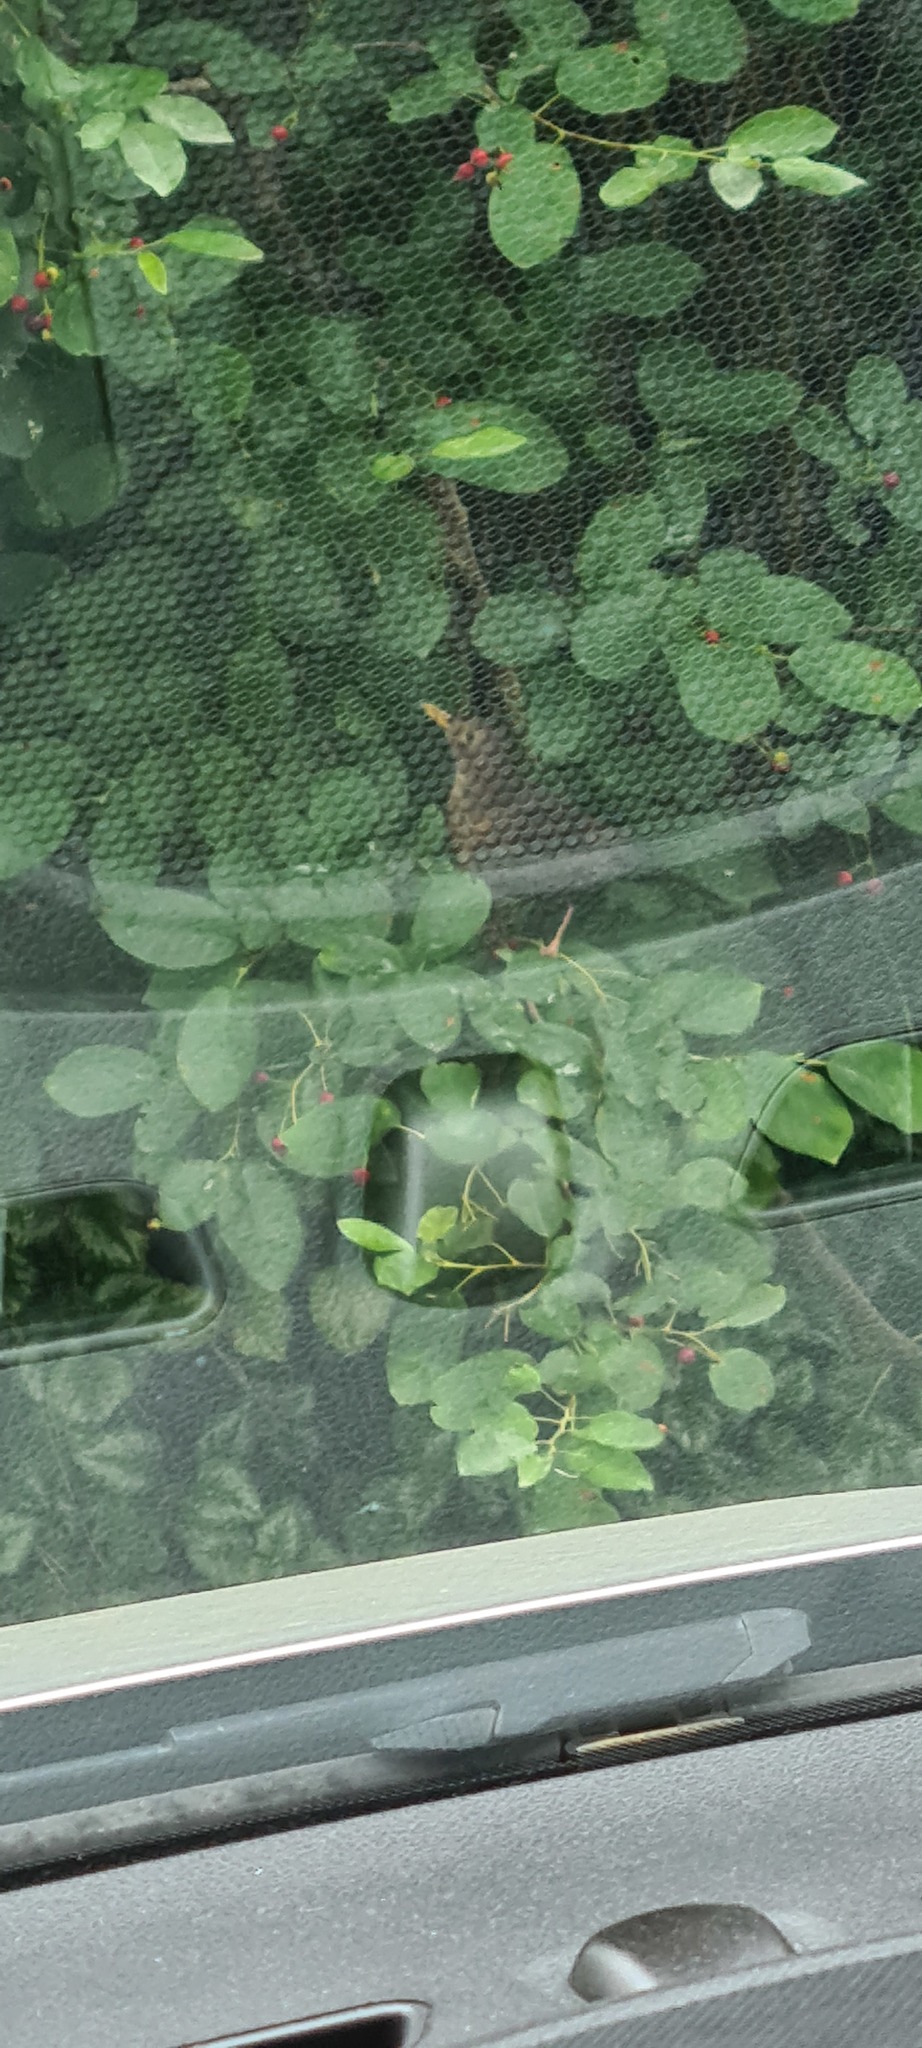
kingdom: Animalia
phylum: Chordata
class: Aves
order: Passeriformes
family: Turdidae
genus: Turdus
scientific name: Turdus merula
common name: Common blackbird
